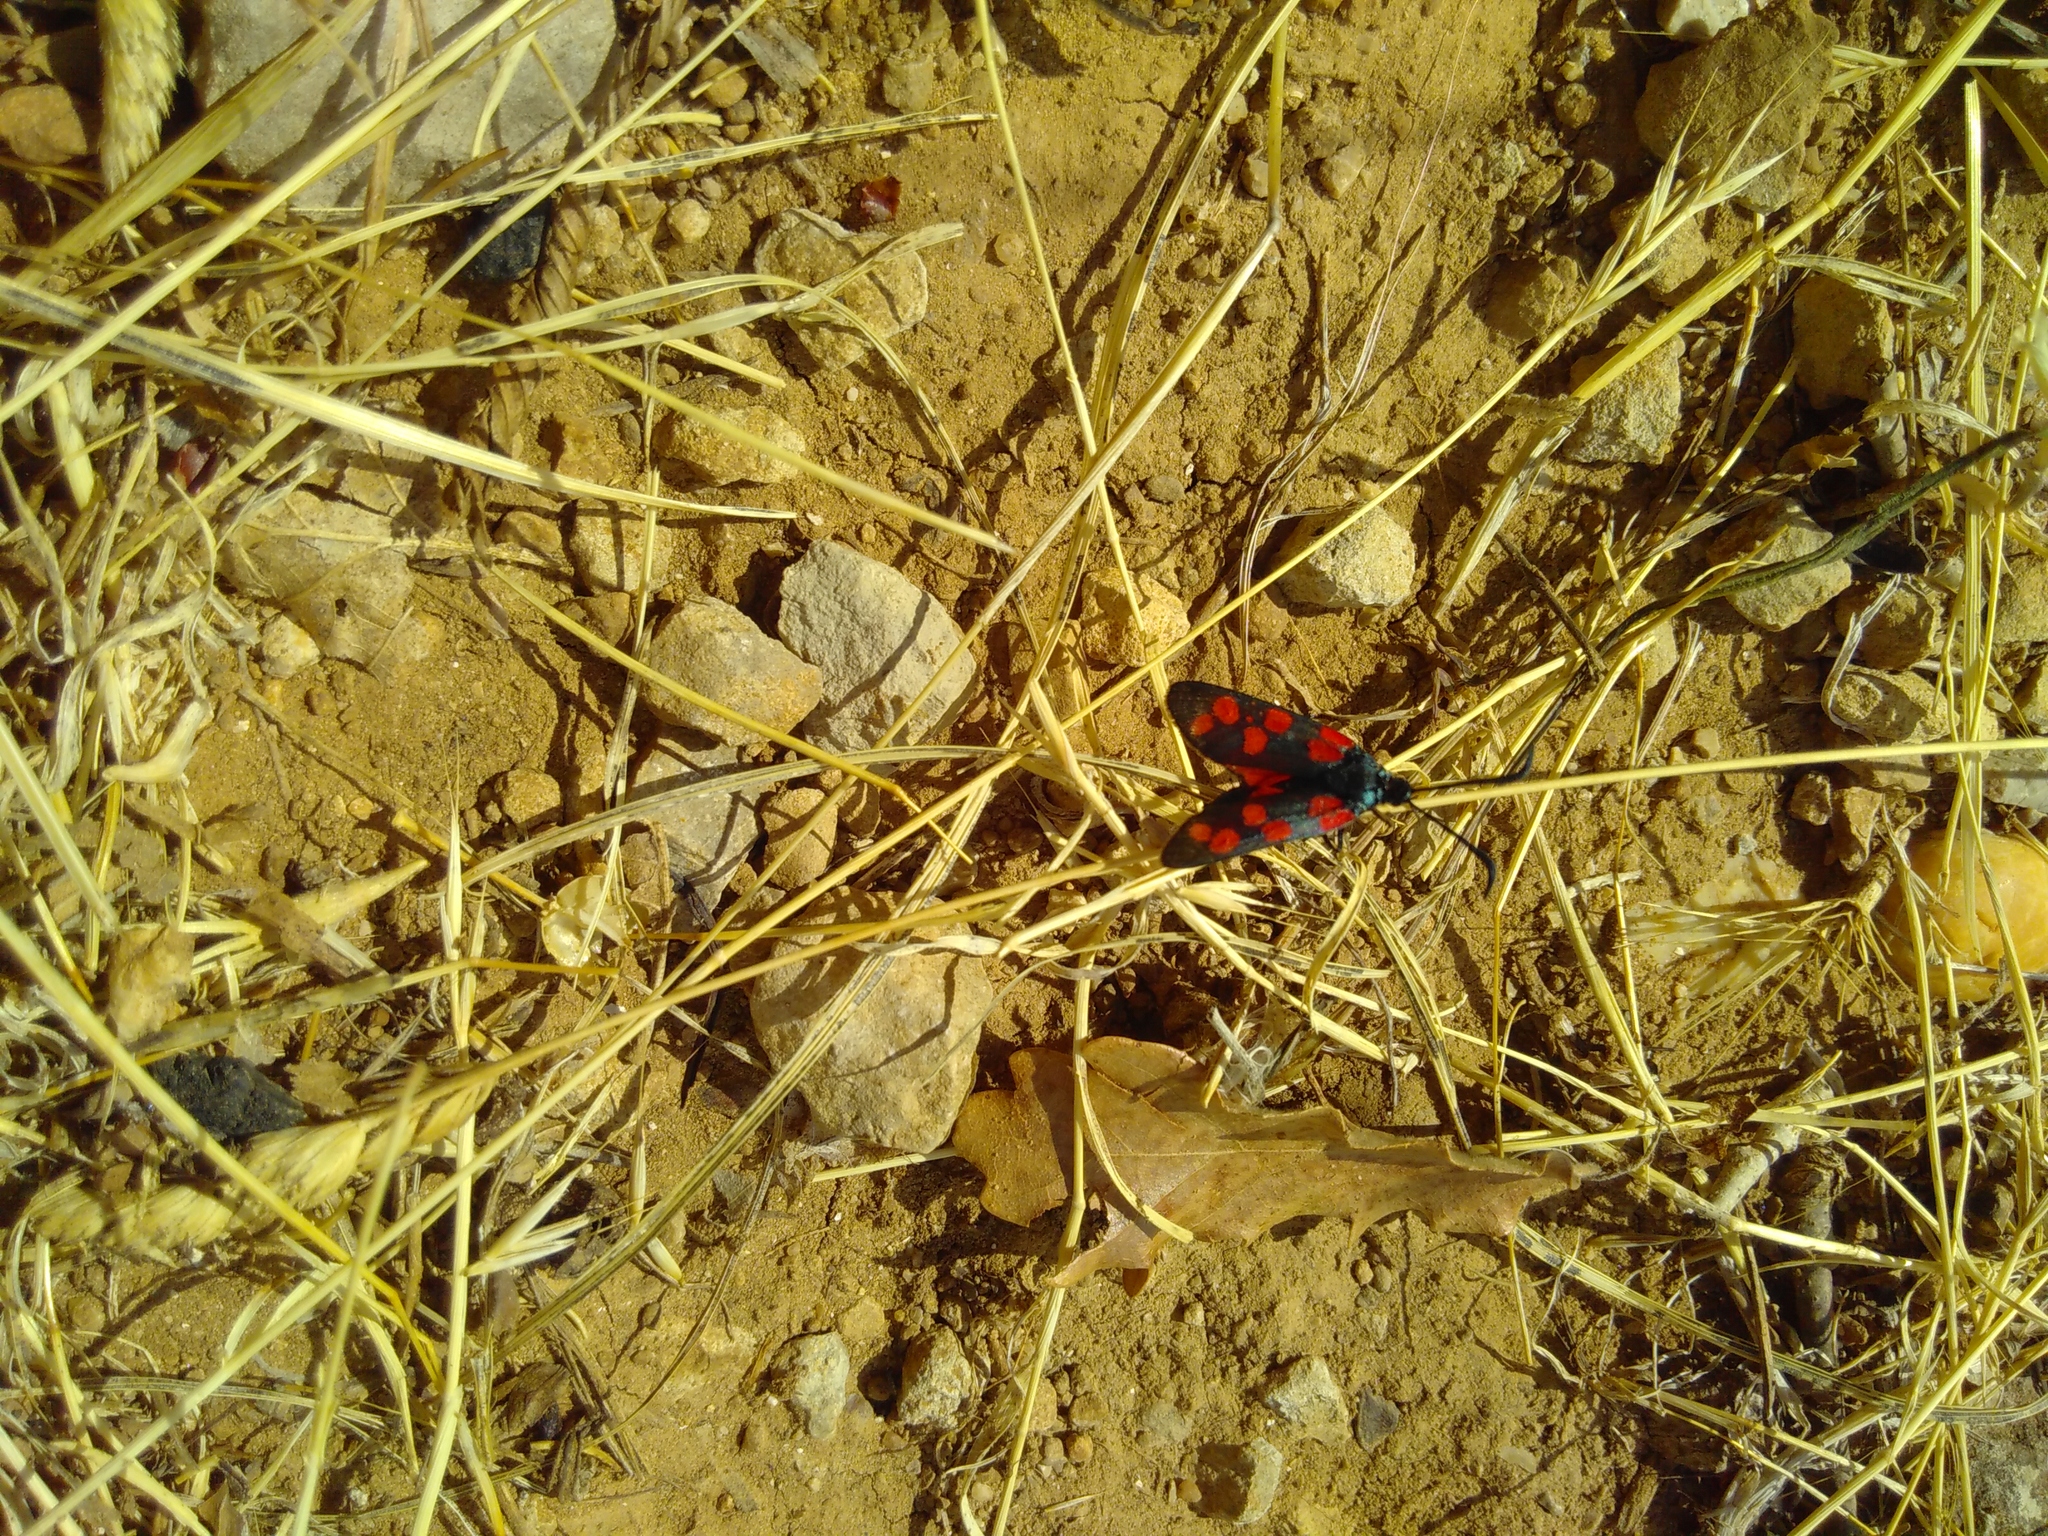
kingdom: Animalia
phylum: Arthropoda
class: Insecta
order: Lepidoptera
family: Zygaenidae
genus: Zygaena
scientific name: Zygaena filipendulae
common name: Six-spot burnet
